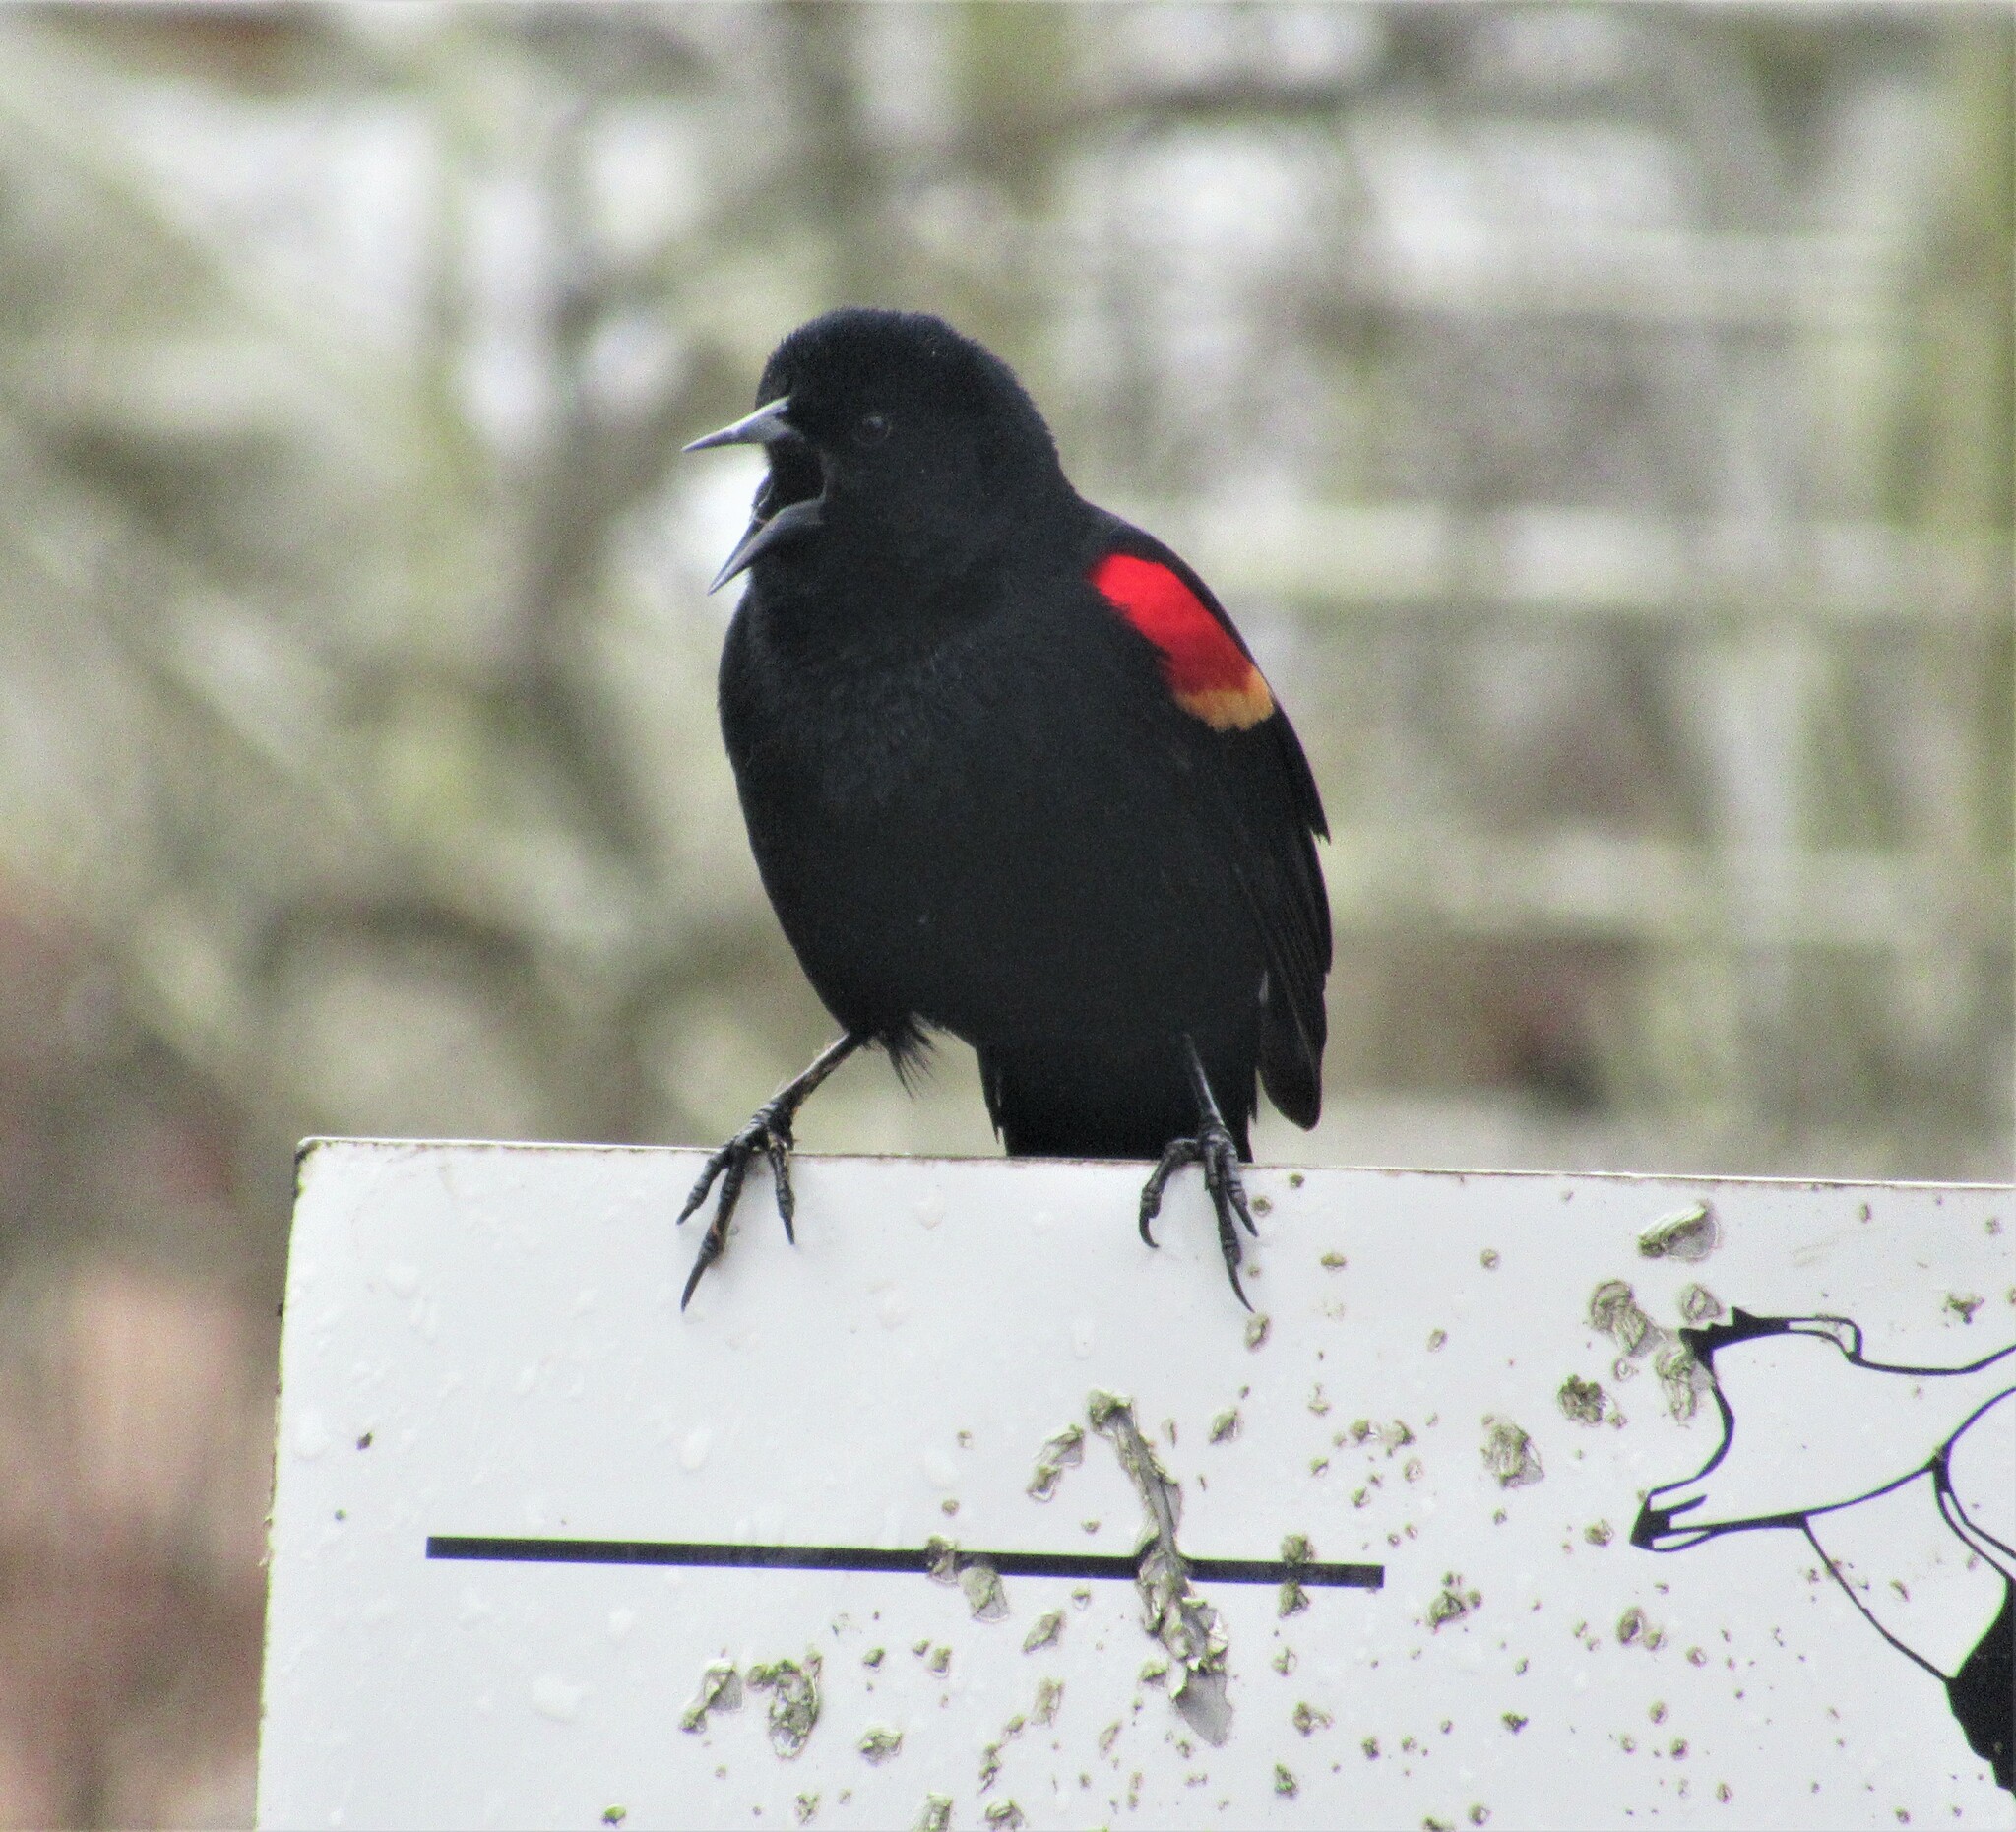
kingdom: Animalia
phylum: Chordata
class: Aves
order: Passeriformes
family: Icteridae
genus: Agelaius
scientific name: Agelaius phoeniceus
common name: Red-winged blackbird
